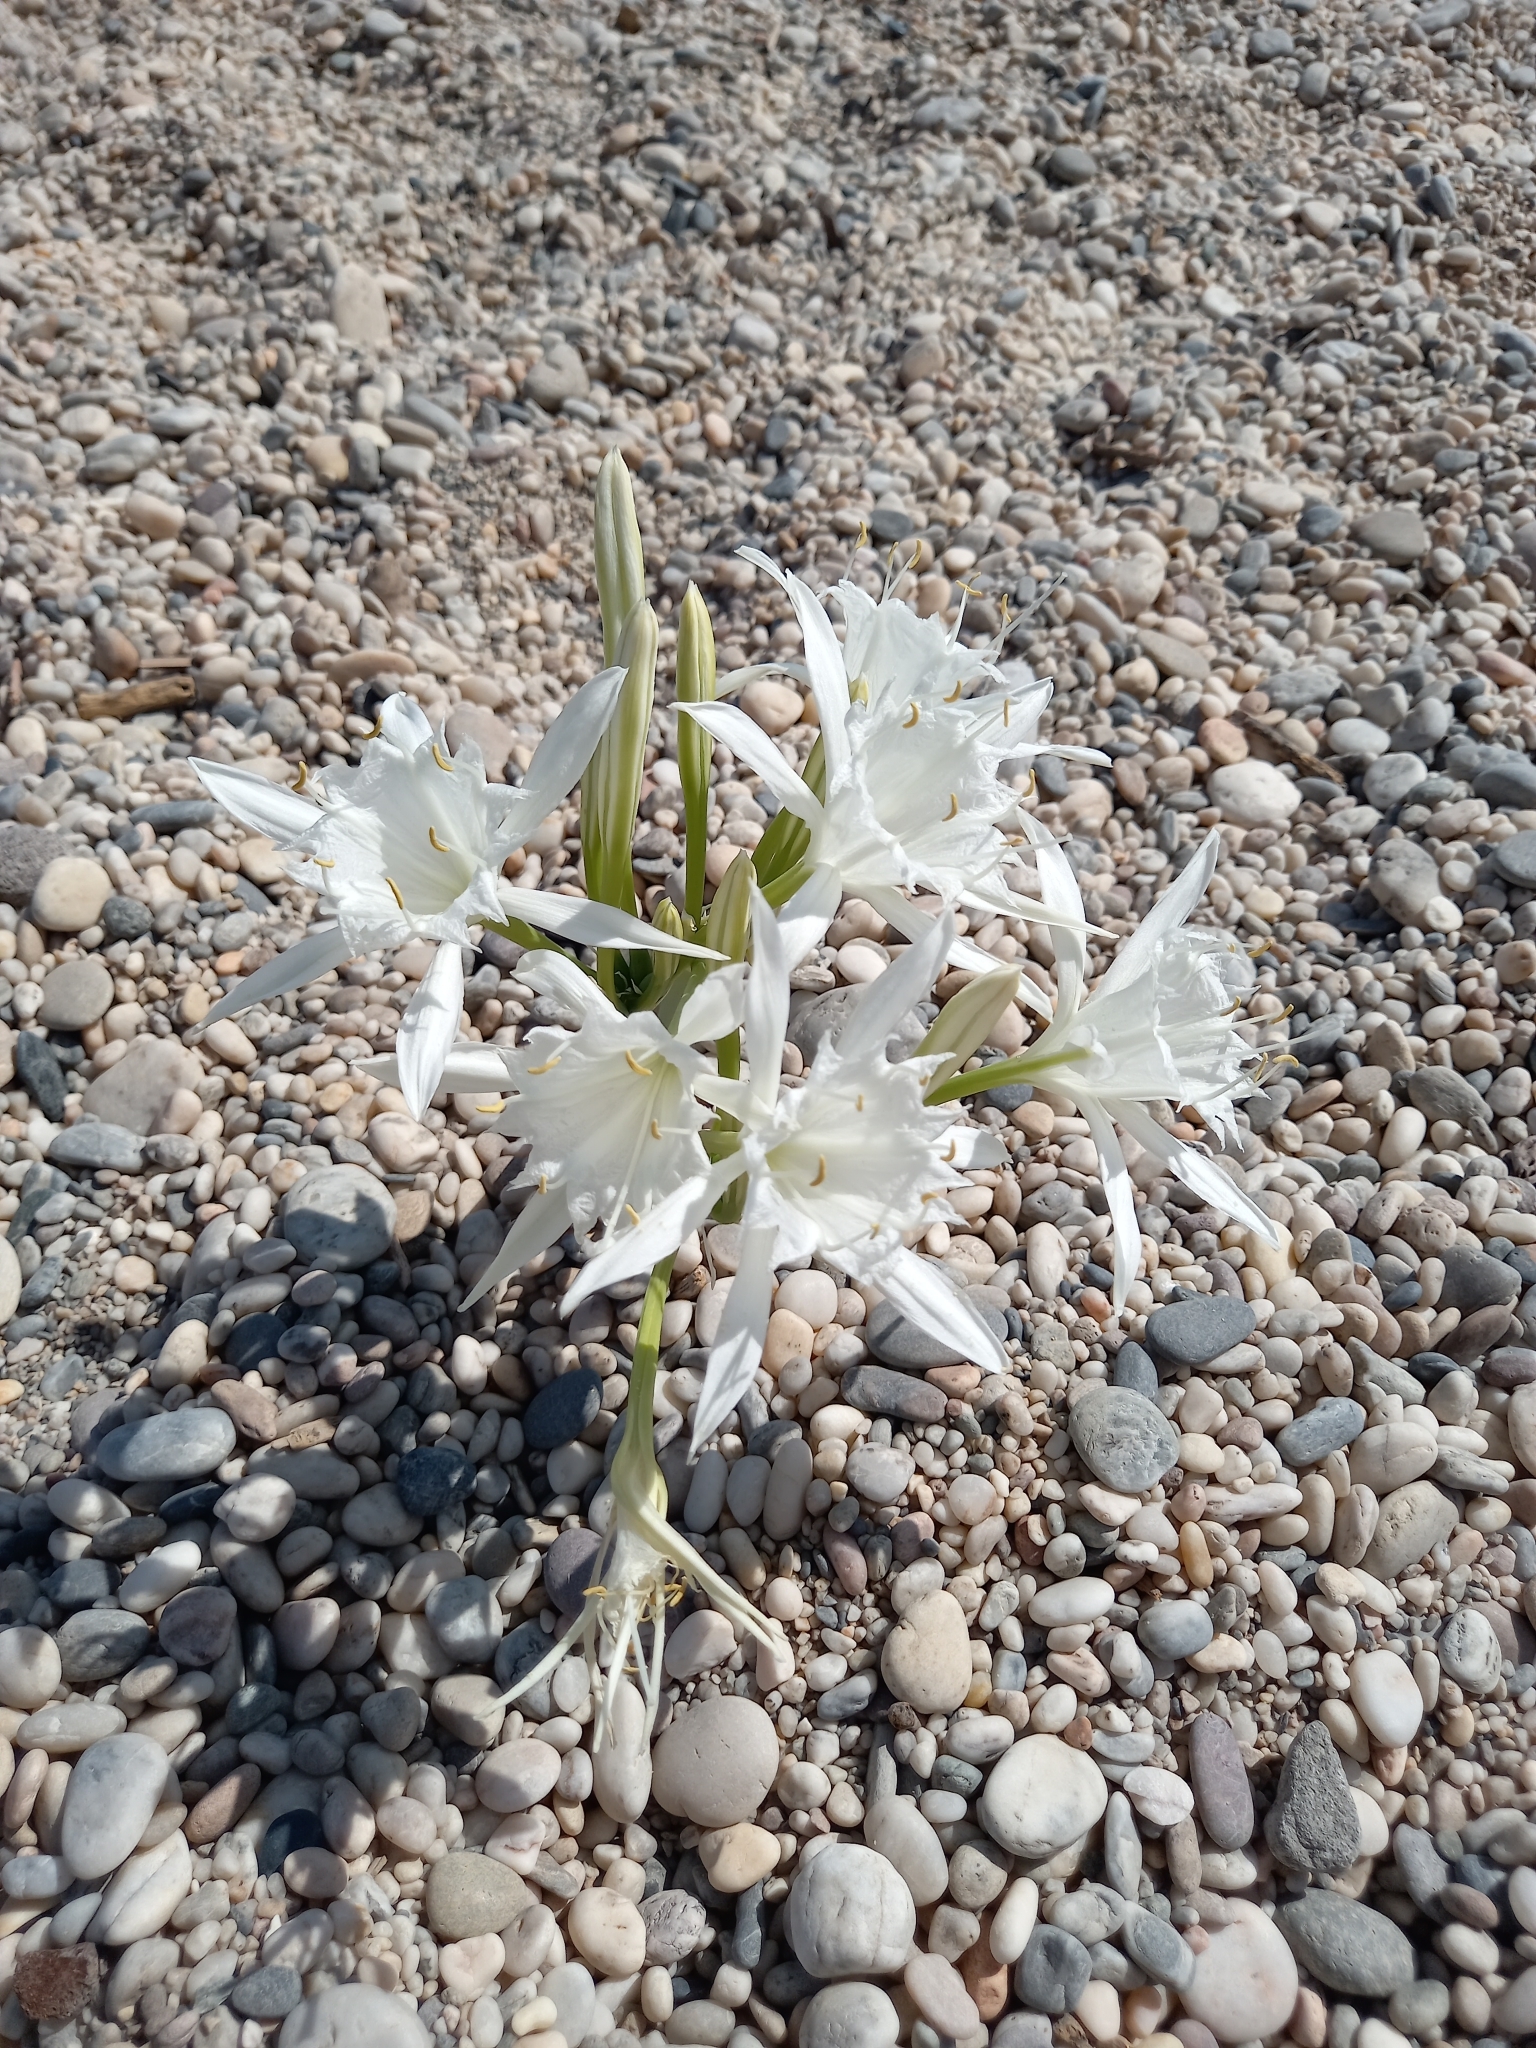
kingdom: Plantae
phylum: Tracheophyta
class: Liliopsida
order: Asparagales
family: Amaryllidaceae
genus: Pancratium
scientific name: Pancratium maritimum
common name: Sea-daffodil
